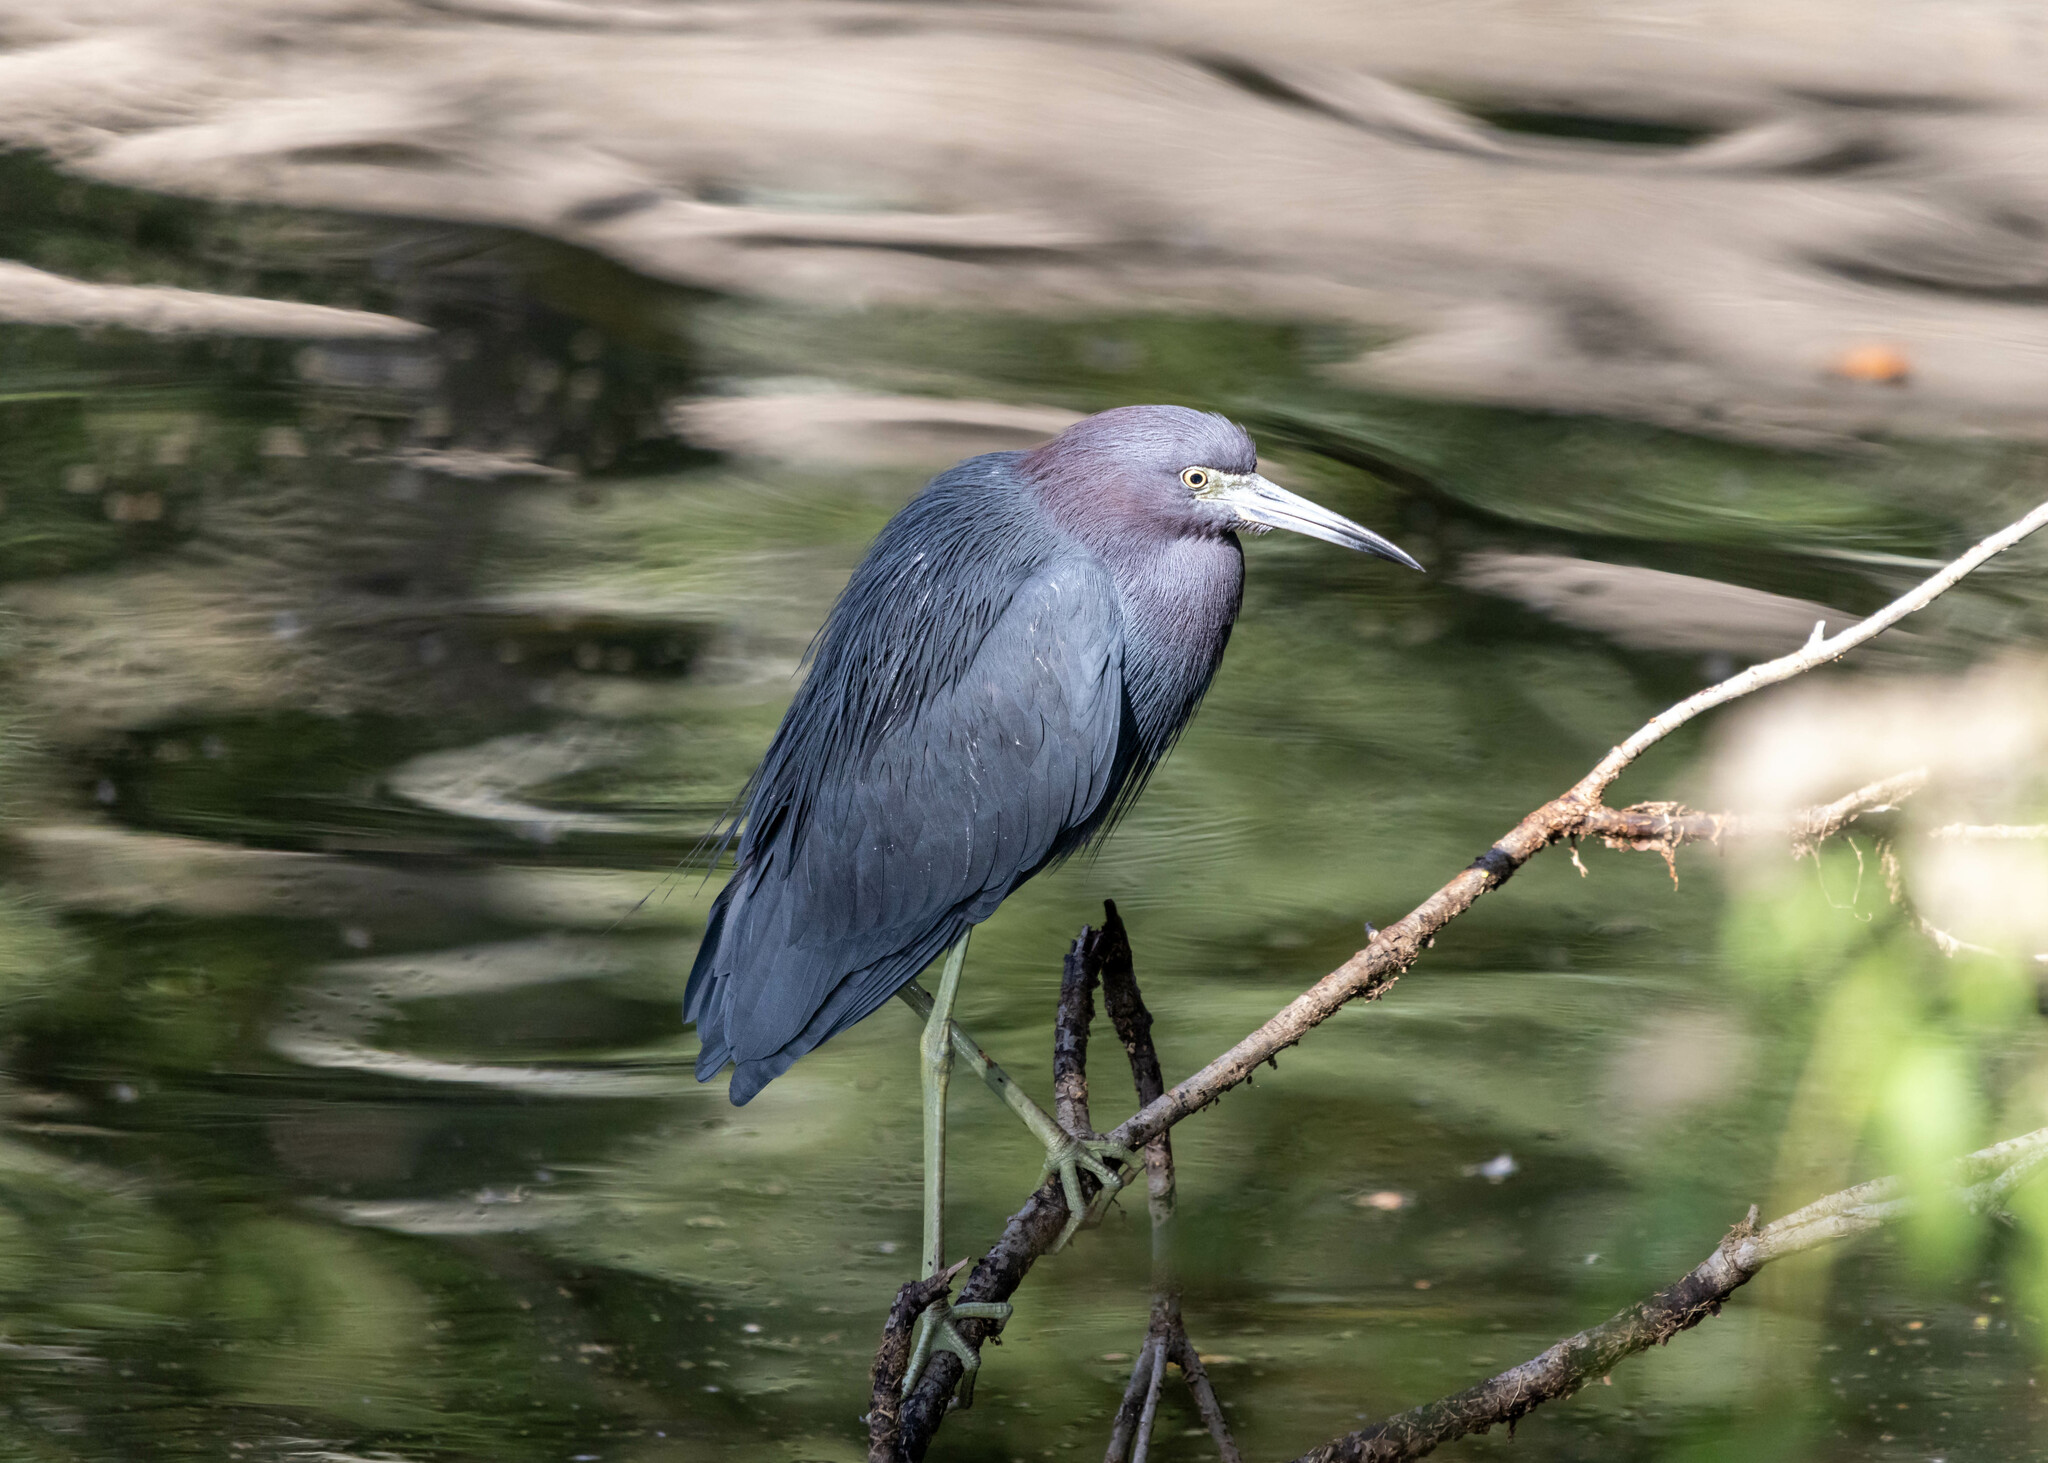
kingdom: Animalia
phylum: Chordata
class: Aves
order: Pelecaniformes
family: Ardeidae
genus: Egretta
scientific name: Egretta caerulea
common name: Little blue heron
